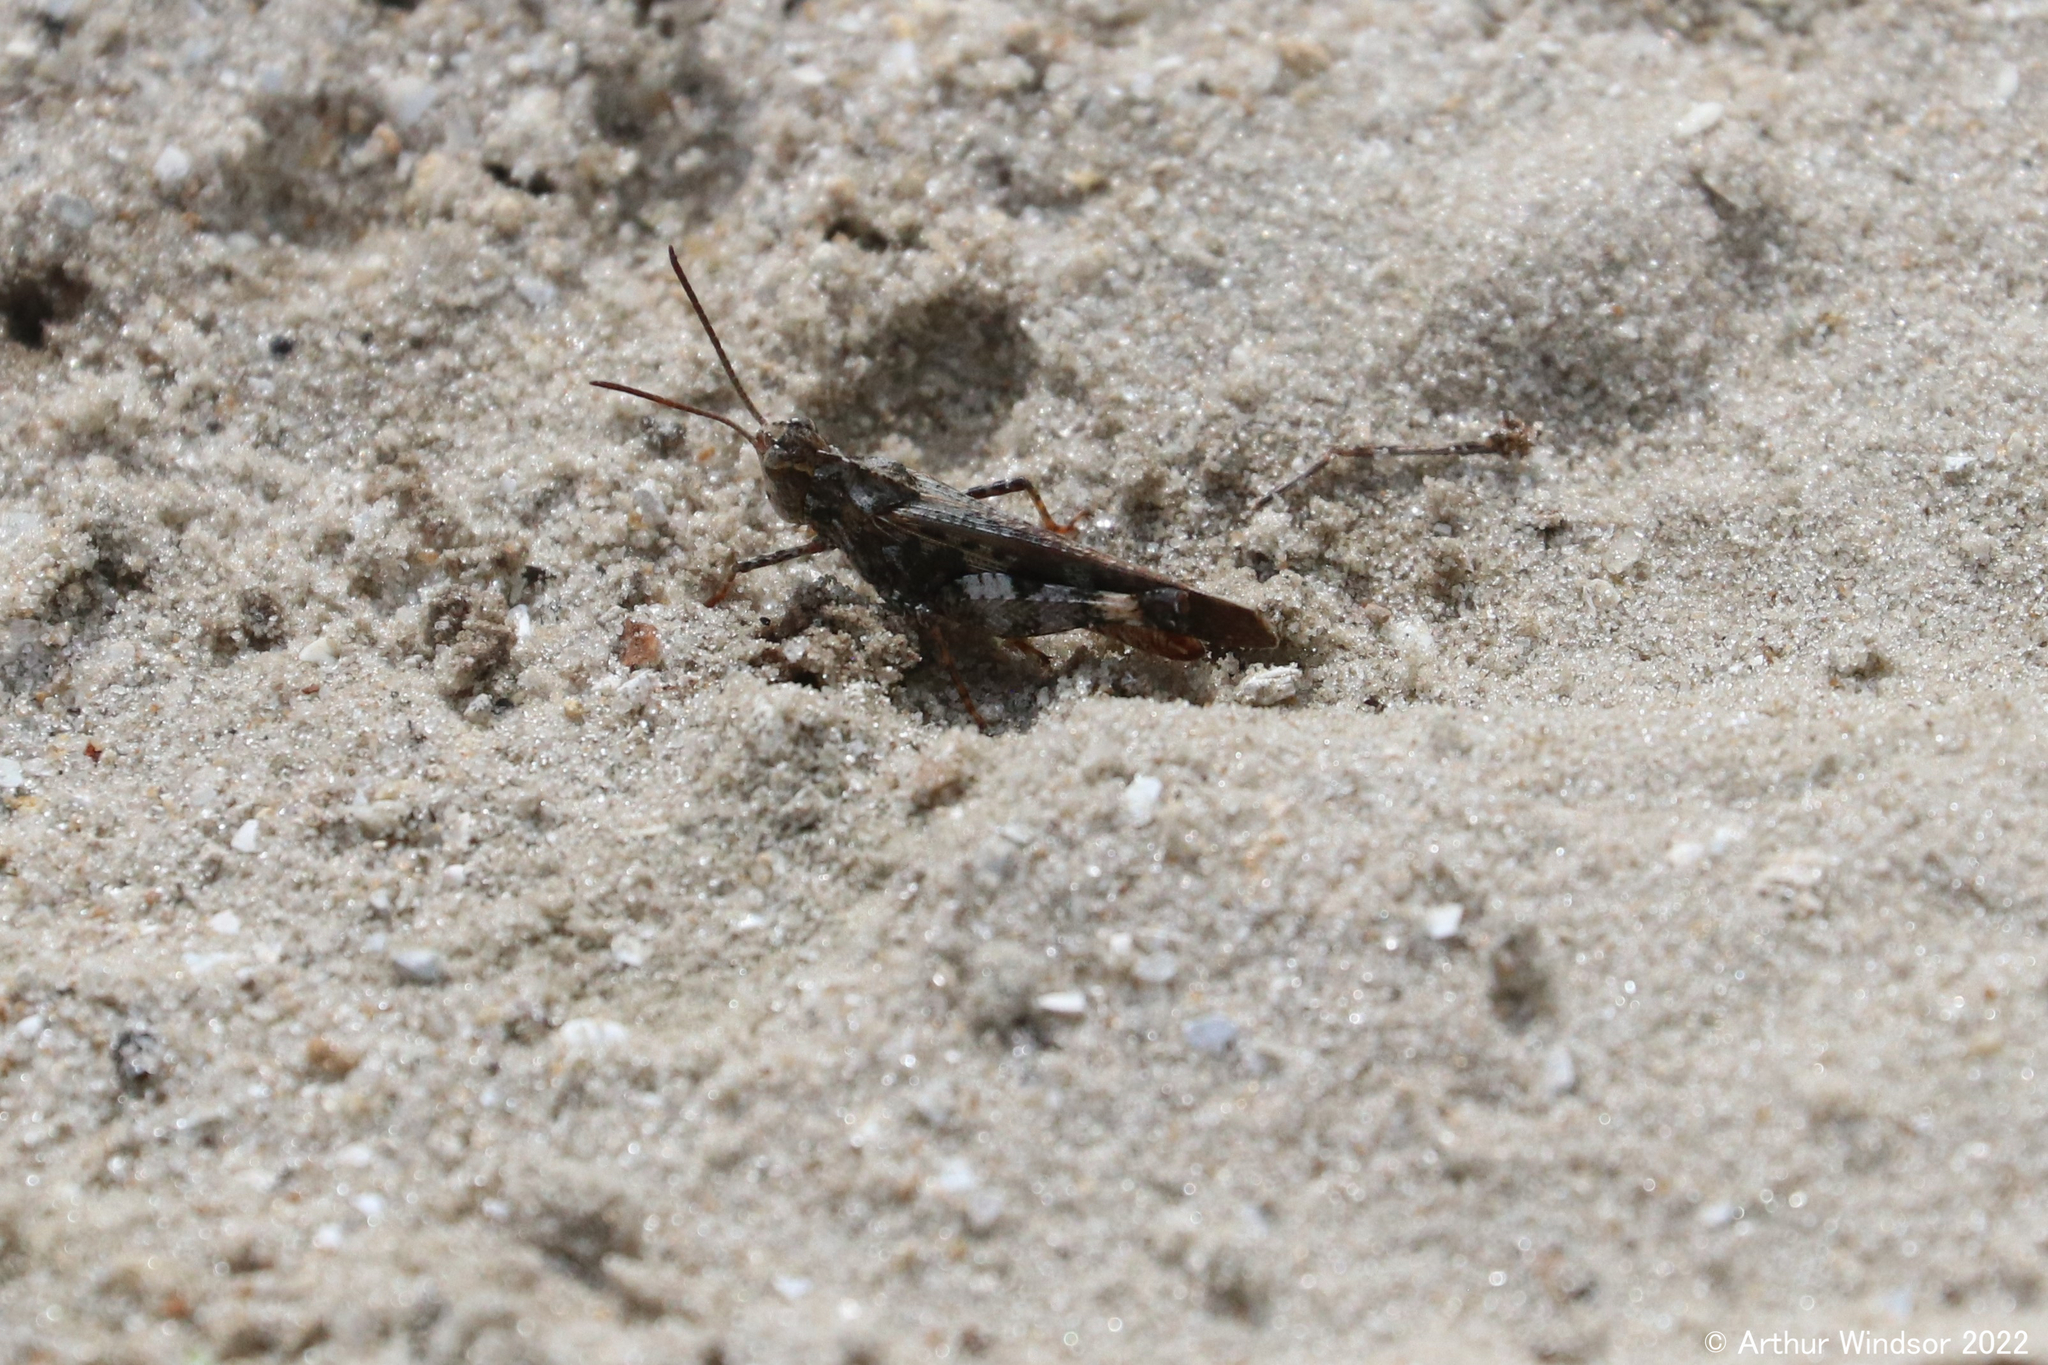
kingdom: Animalia
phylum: Arthropoda
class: Insecta
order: Orthoptera
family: Acrididae
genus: Chortophaga
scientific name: Chortophaga australior
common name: Southern green-striped grasshopper
